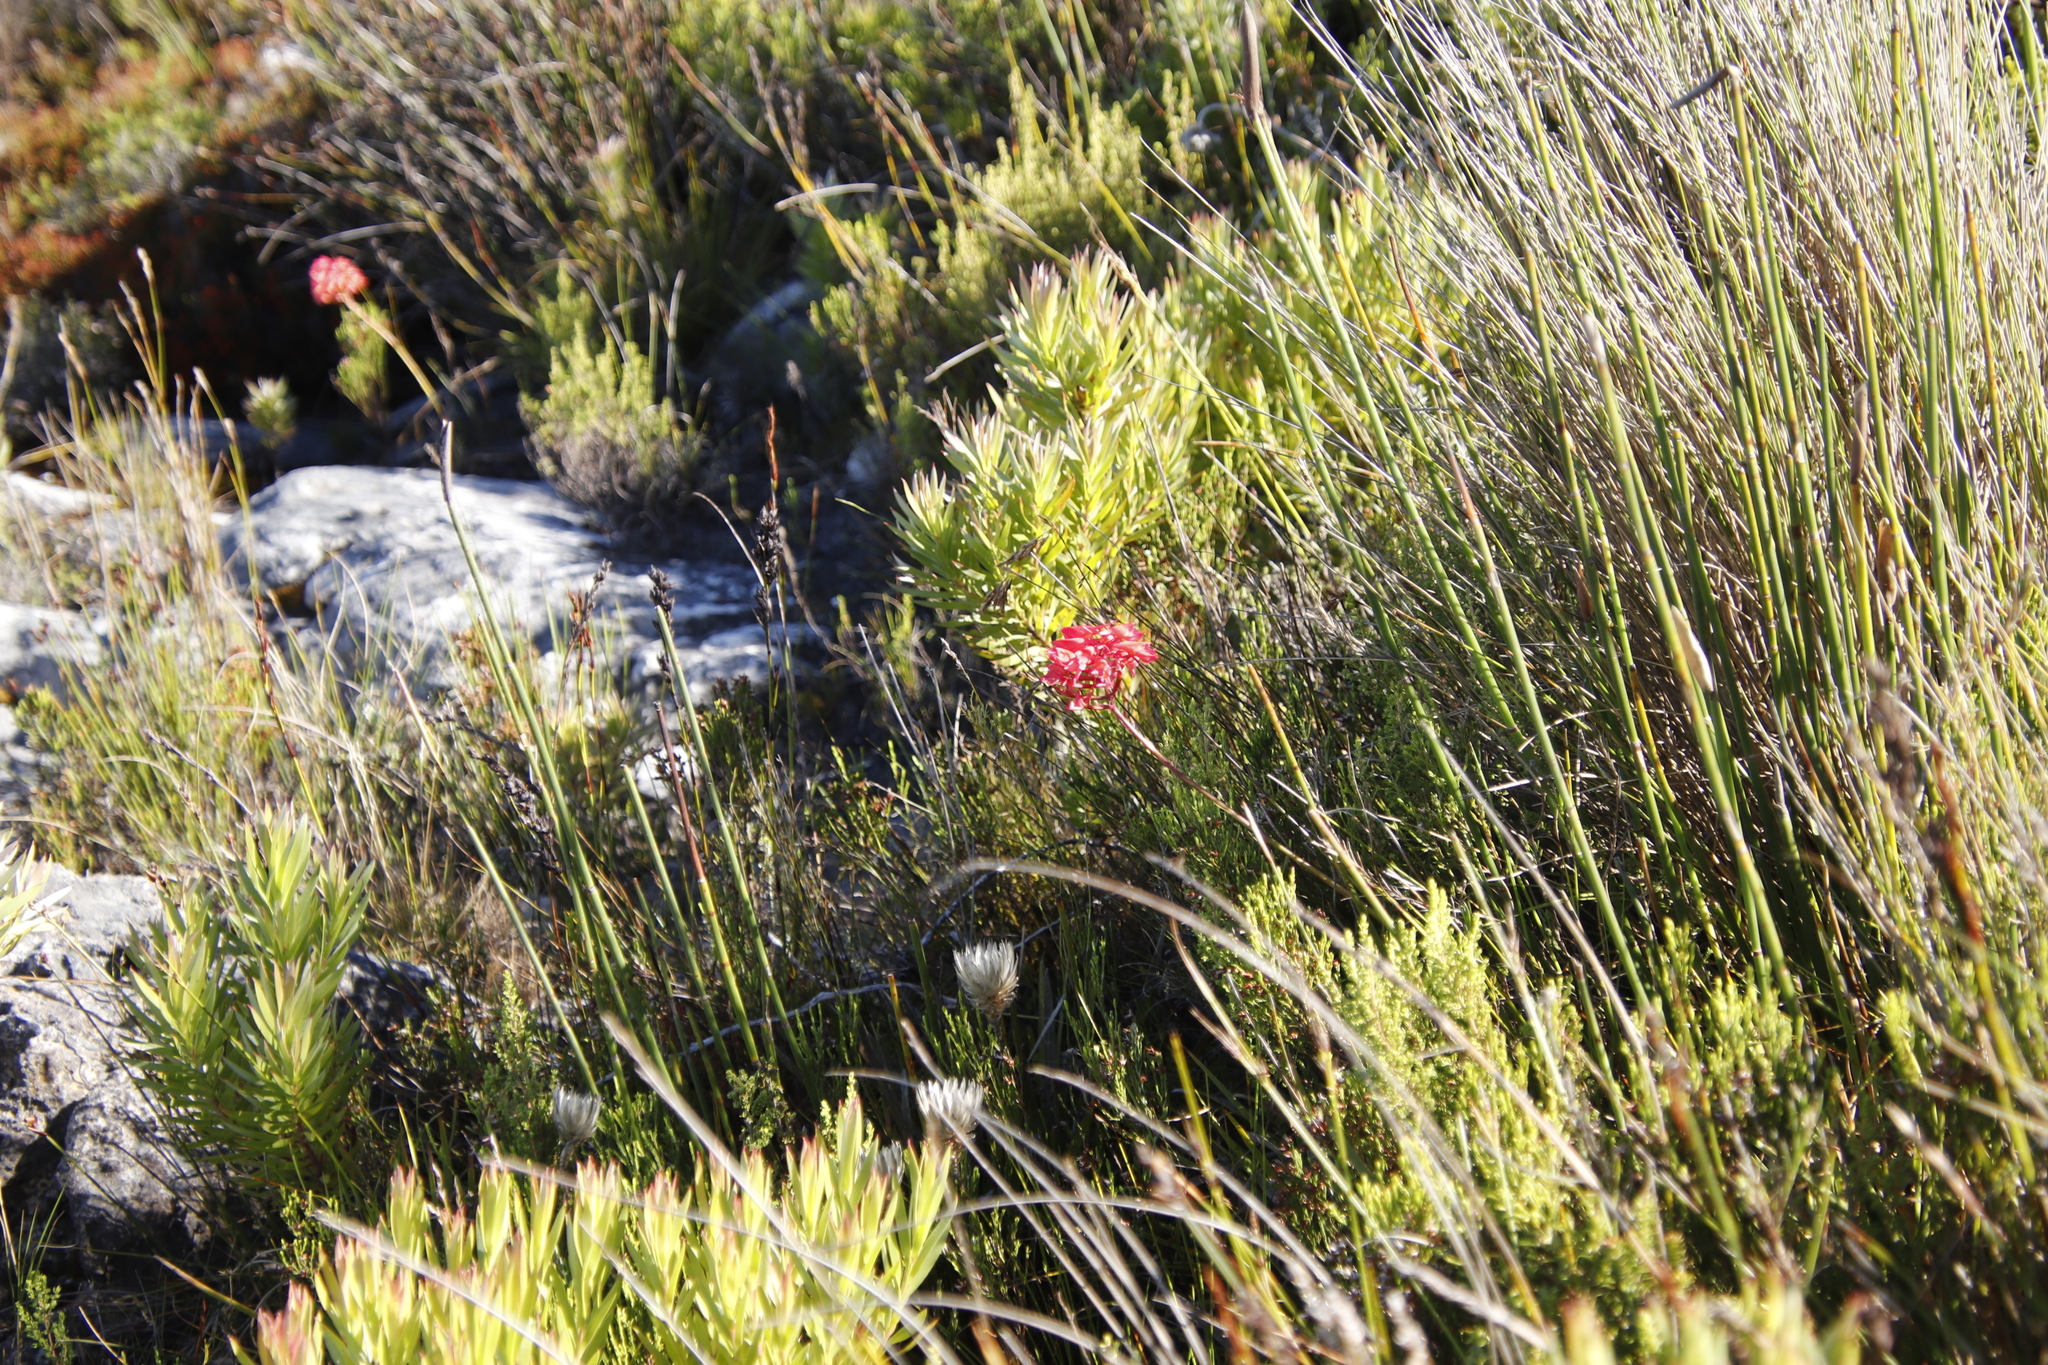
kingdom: Plantae
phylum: Tracheophyta
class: Liliopsida
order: Asparagales
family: Orchidaceae
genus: Disa
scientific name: Disa ferruginea
